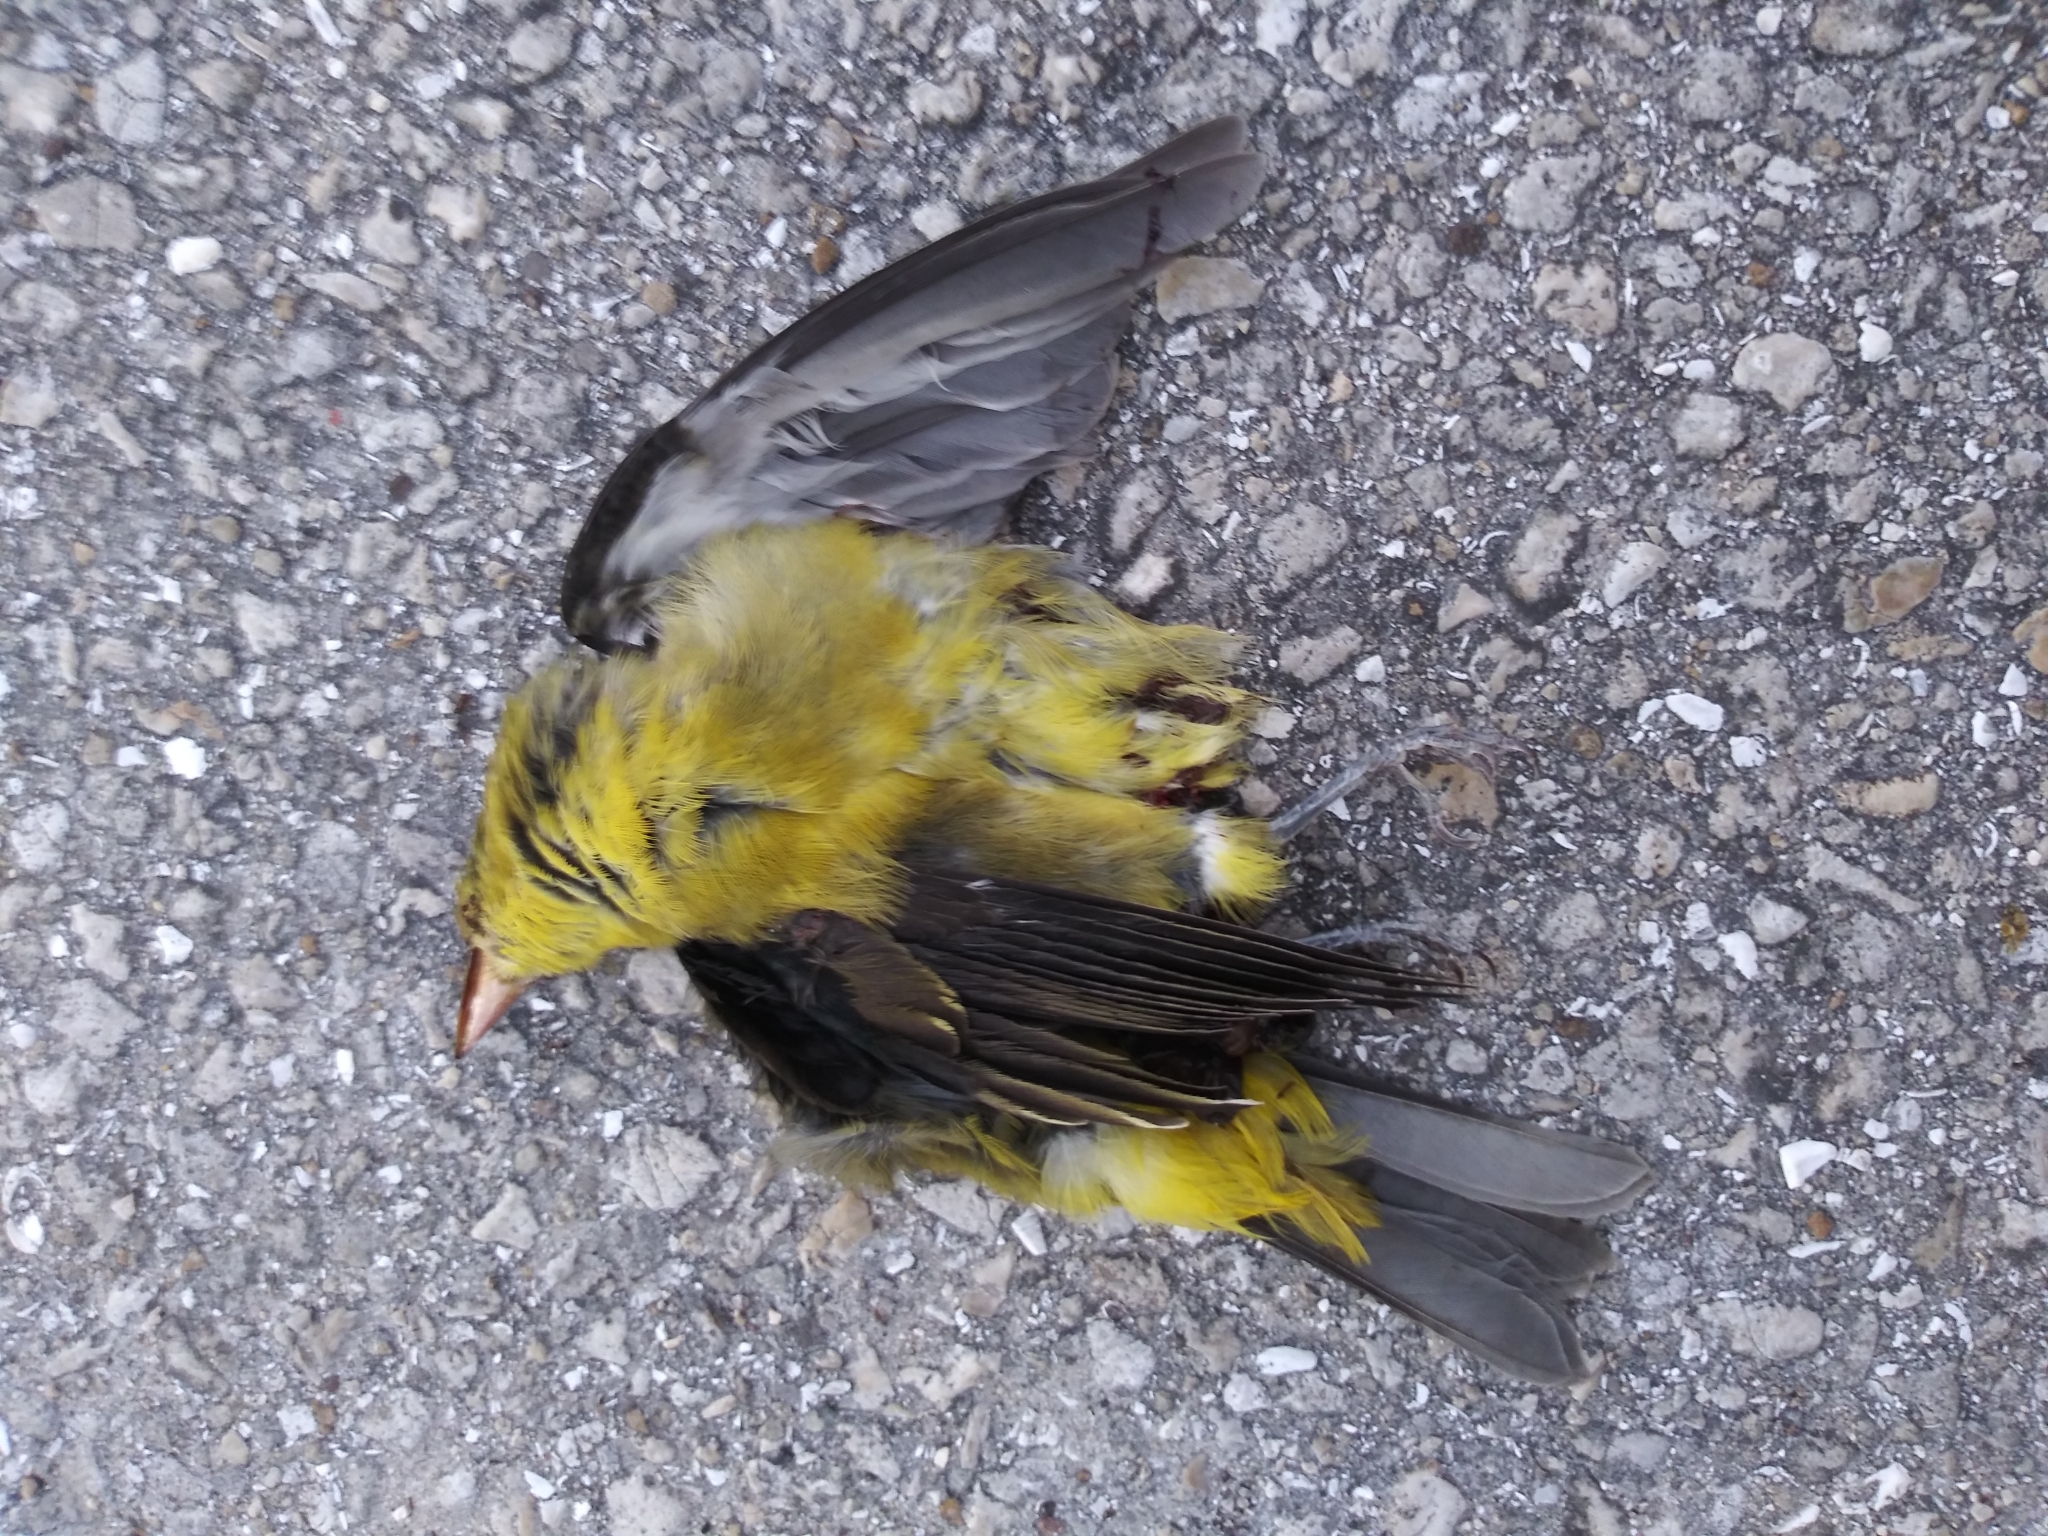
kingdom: Animalia
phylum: Chordata
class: Aves
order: Passeriformes
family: Cardinalidae
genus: Piranga
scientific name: Piranga olivacea
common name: Scarlet tanager
